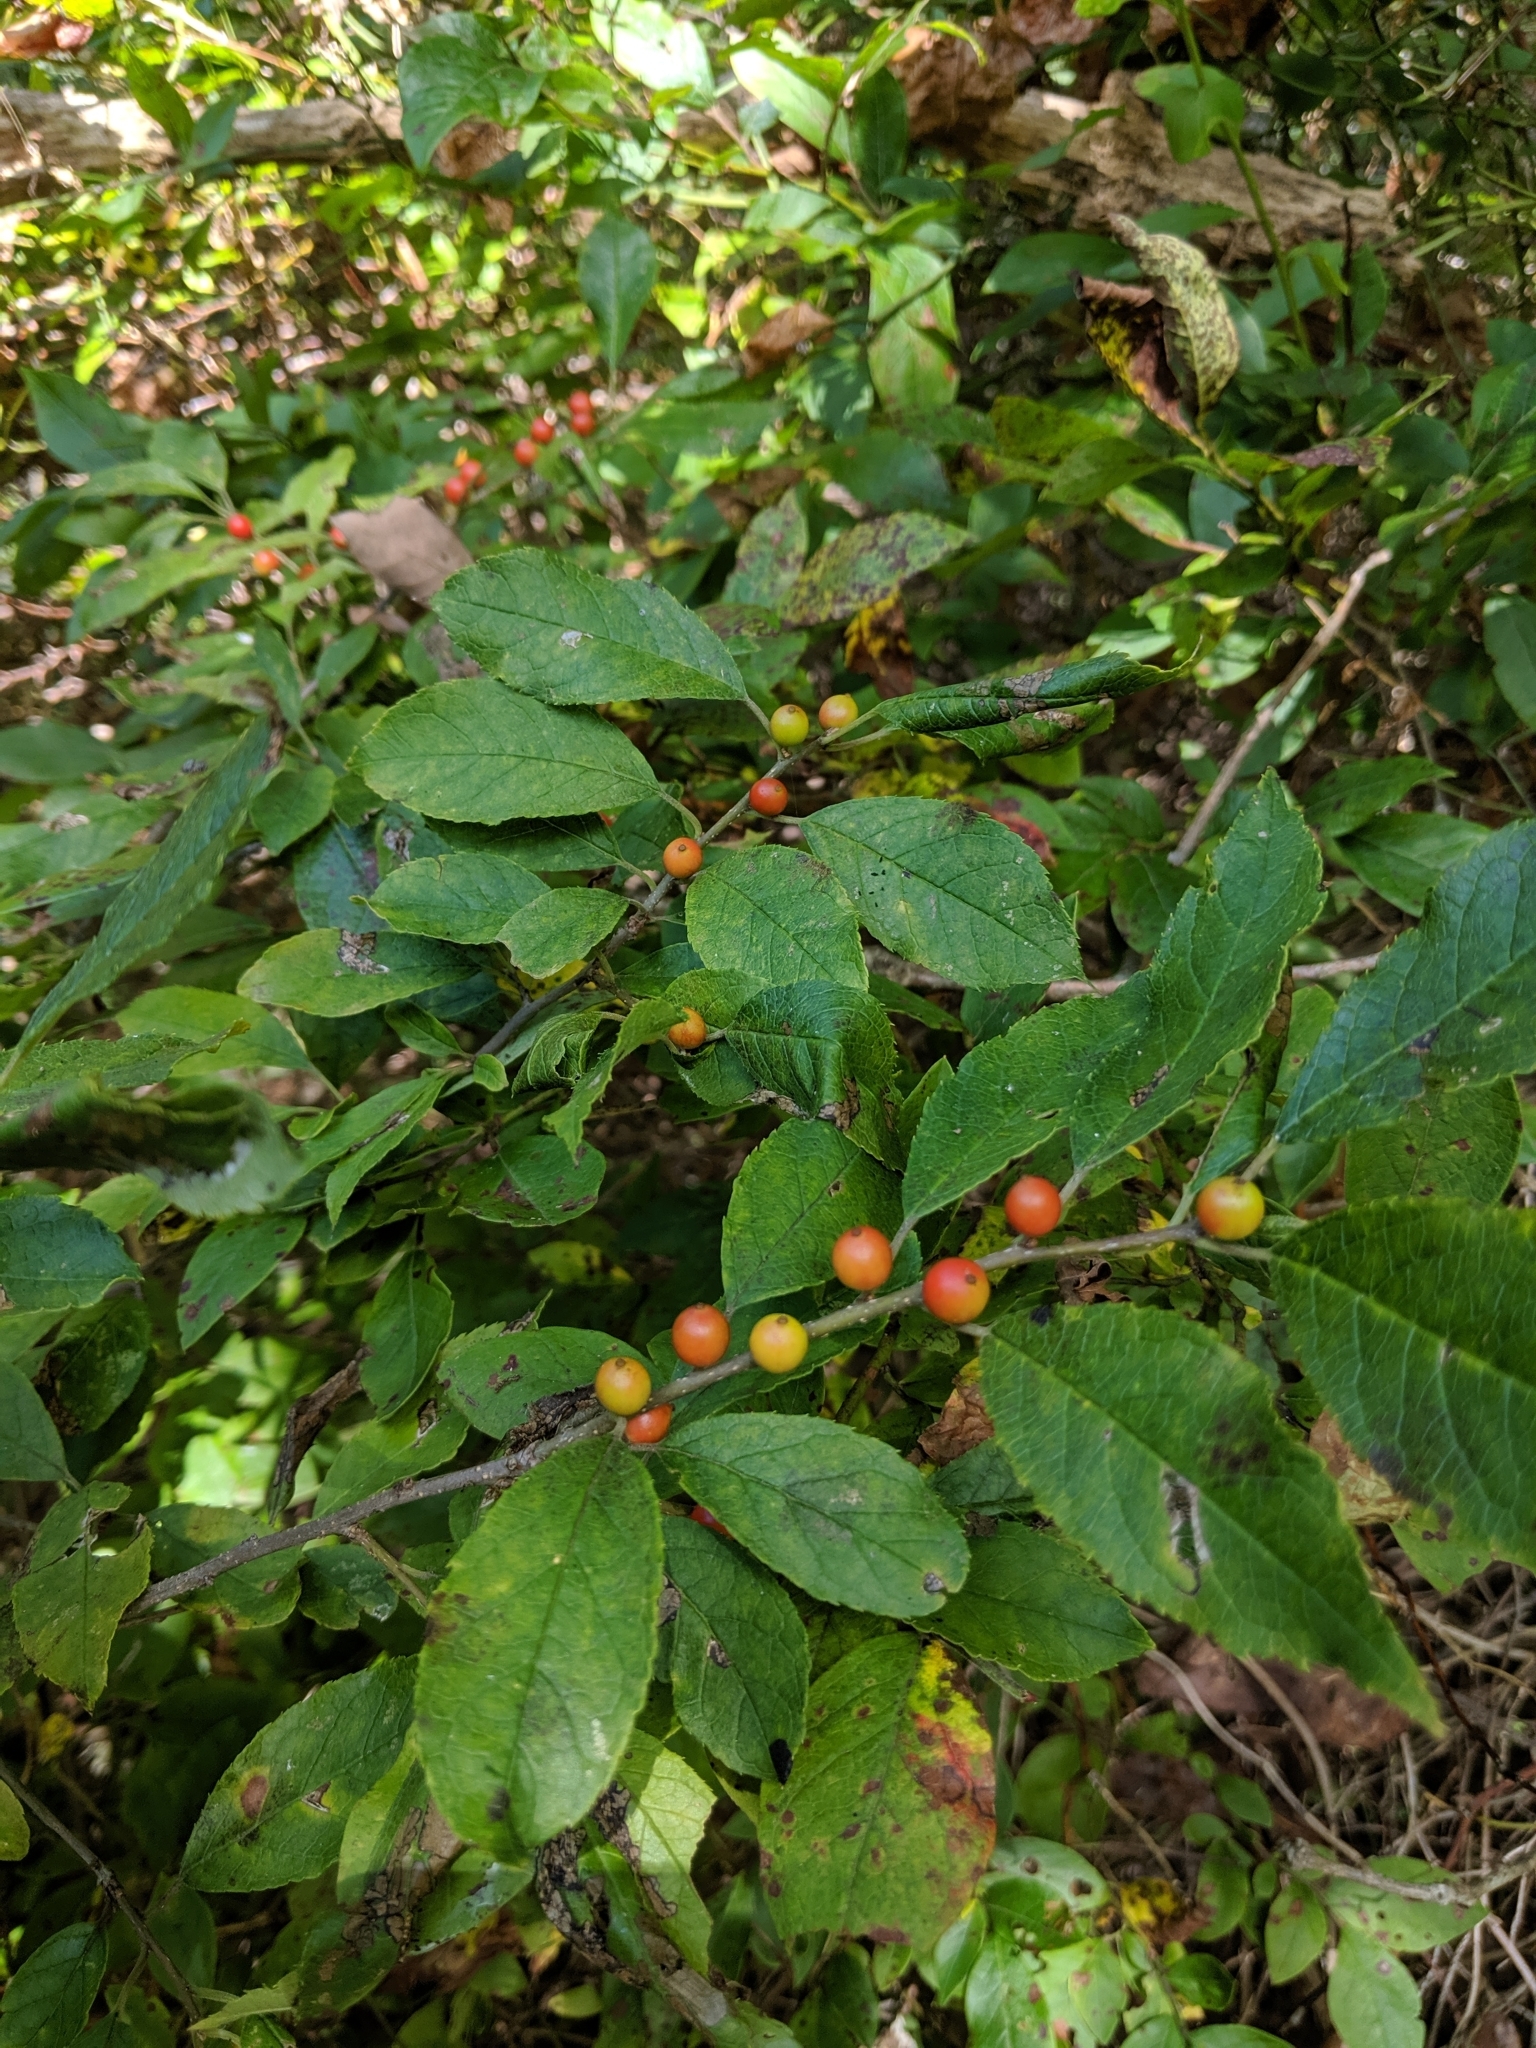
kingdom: Plantae
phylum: Tracheophyta
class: Magnoliopsida
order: Aquifoliales
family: Aquifoliaceae
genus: Ilex
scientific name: Ilex verticillata
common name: Virginia winterberry
